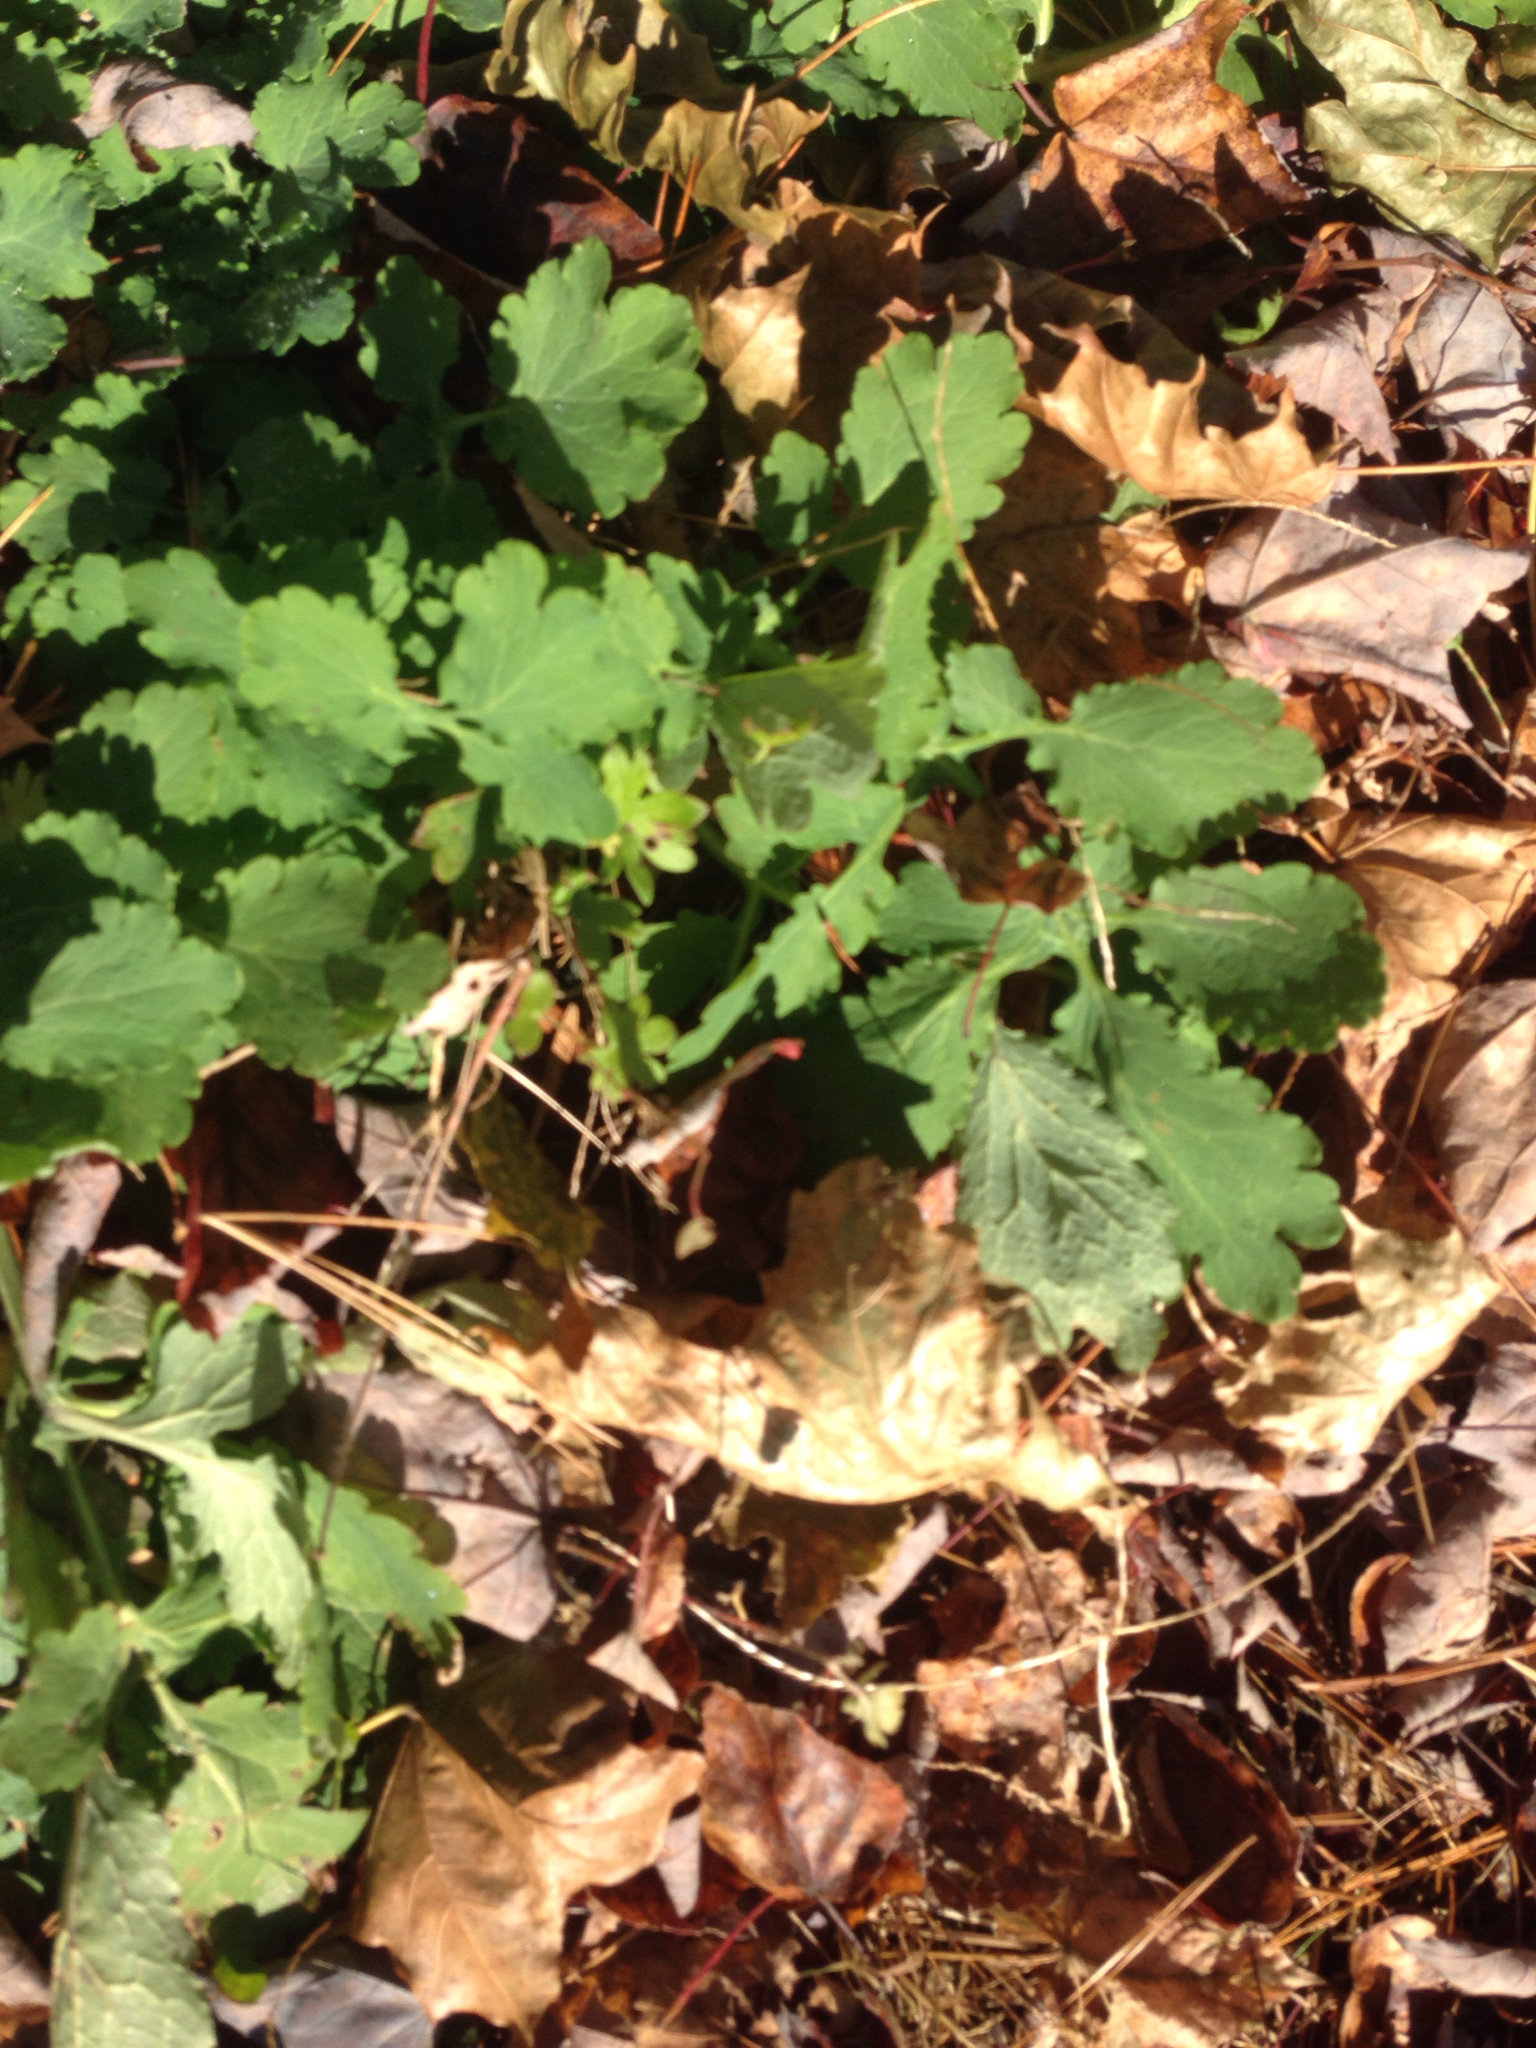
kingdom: Plantae
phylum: Tracheophyta
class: Magnoliopsida
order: Ranunculales
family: Papaveraceae
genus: Chelidonium
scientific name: Chelidonium majus
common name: Greater celandine
